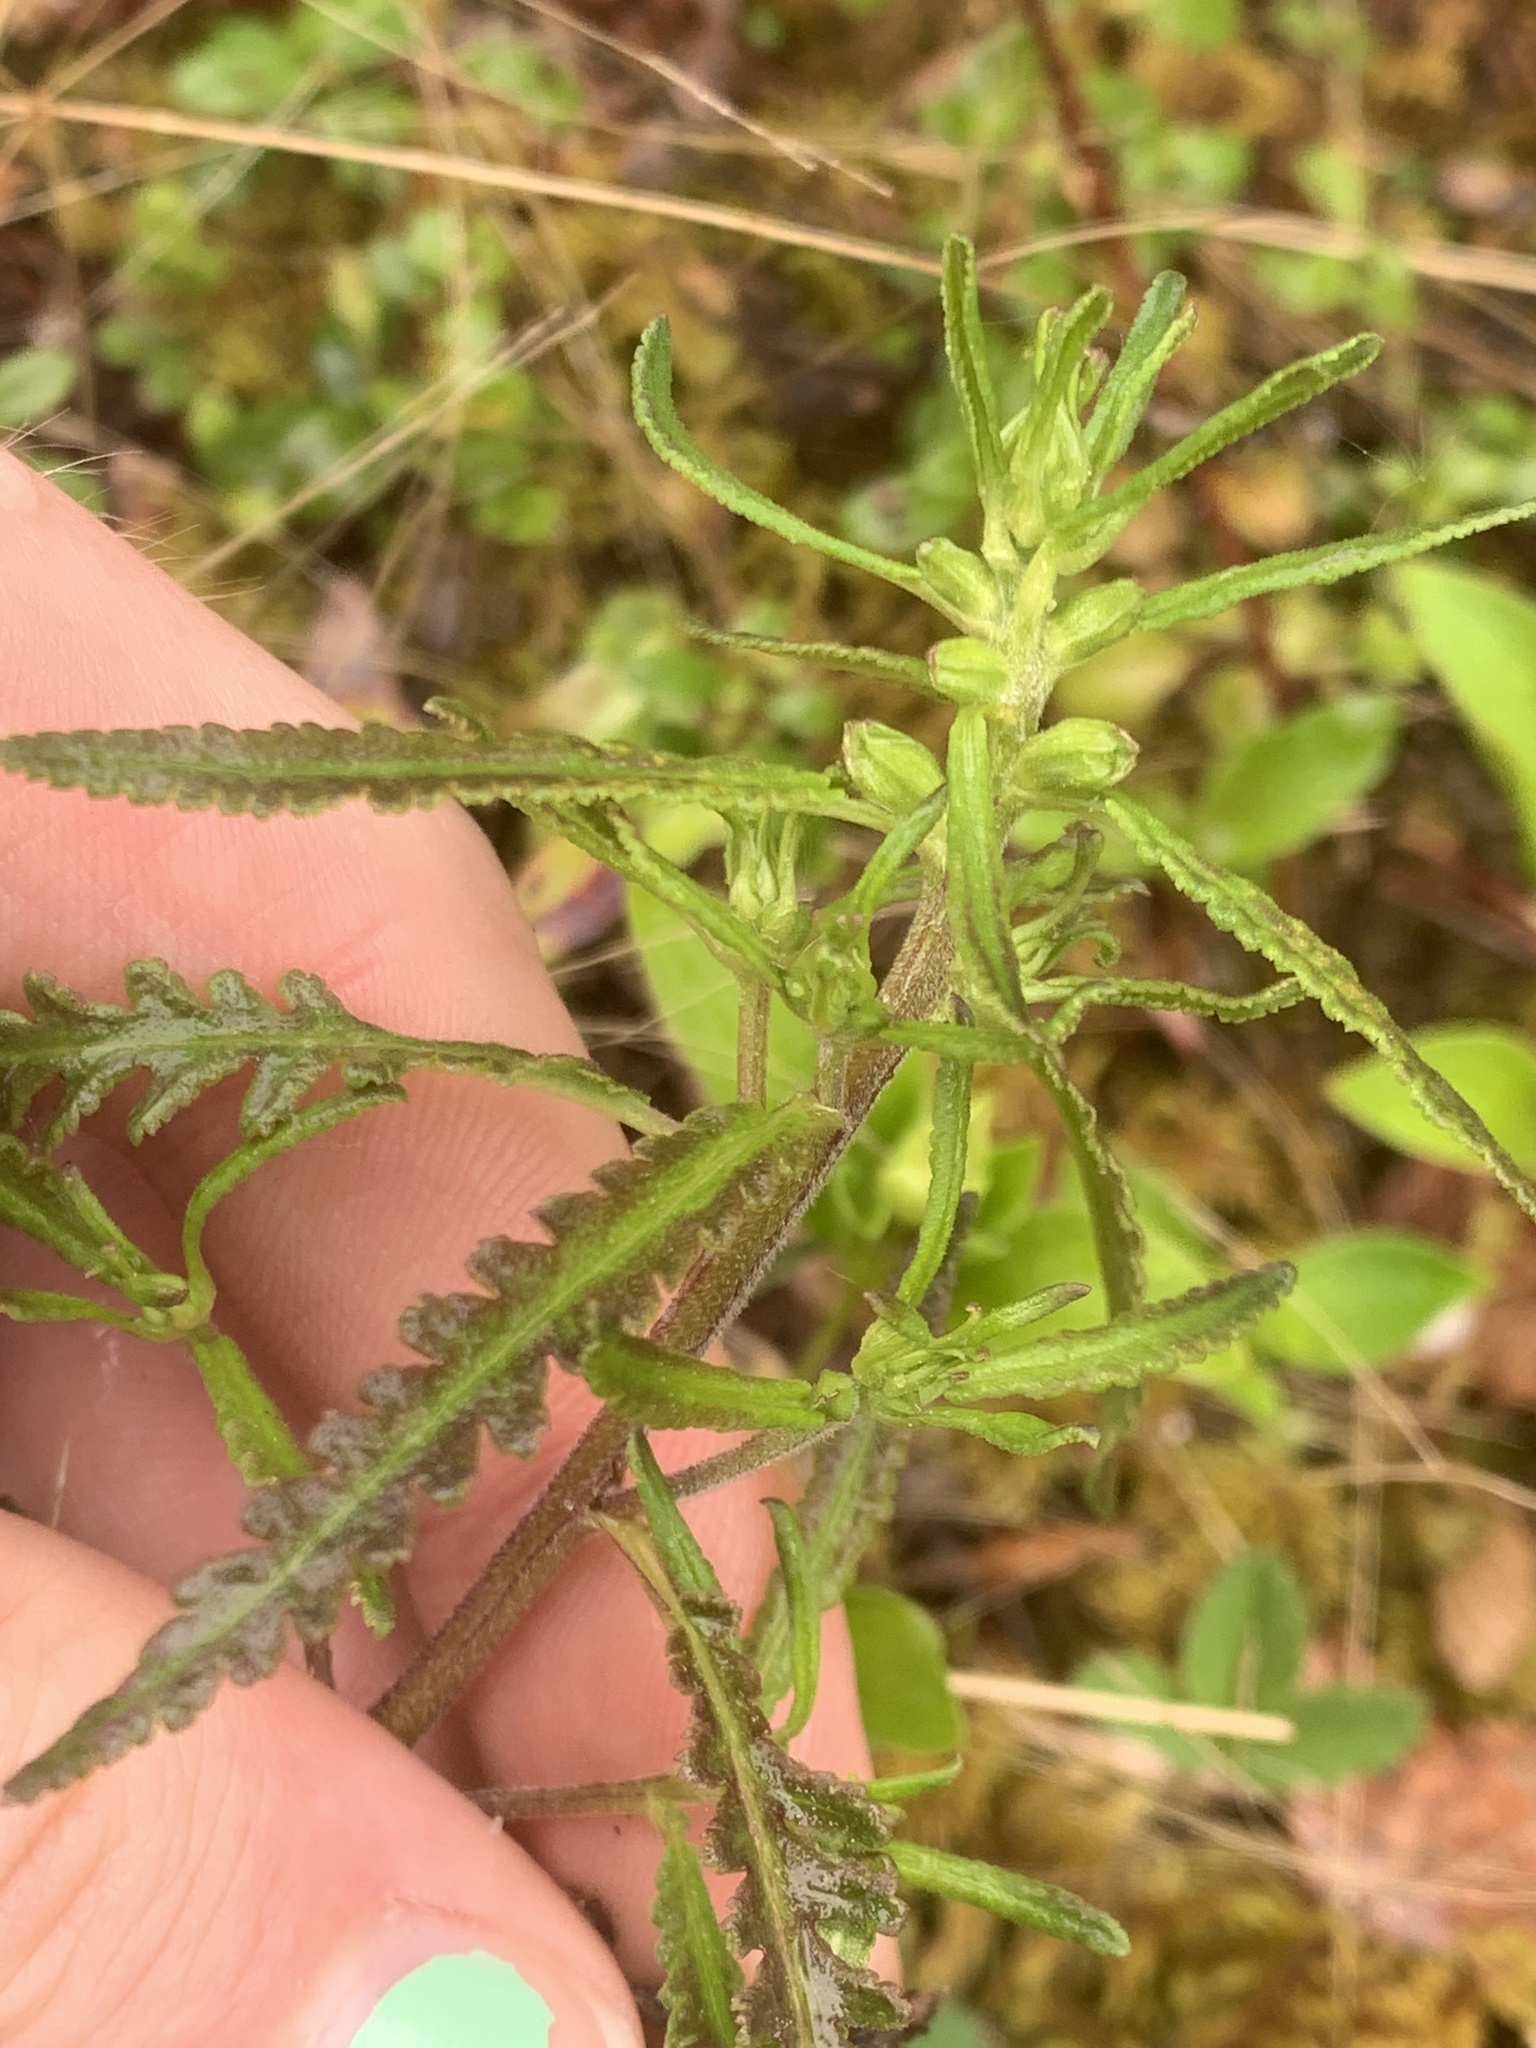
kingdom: Plantae
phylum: Tracheophyta
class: Magnoliopsida
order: Lamiales
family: Orobanchaceae
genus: Pedicularis
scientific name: Pedicularis labradorica
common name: Labrador lousewort
